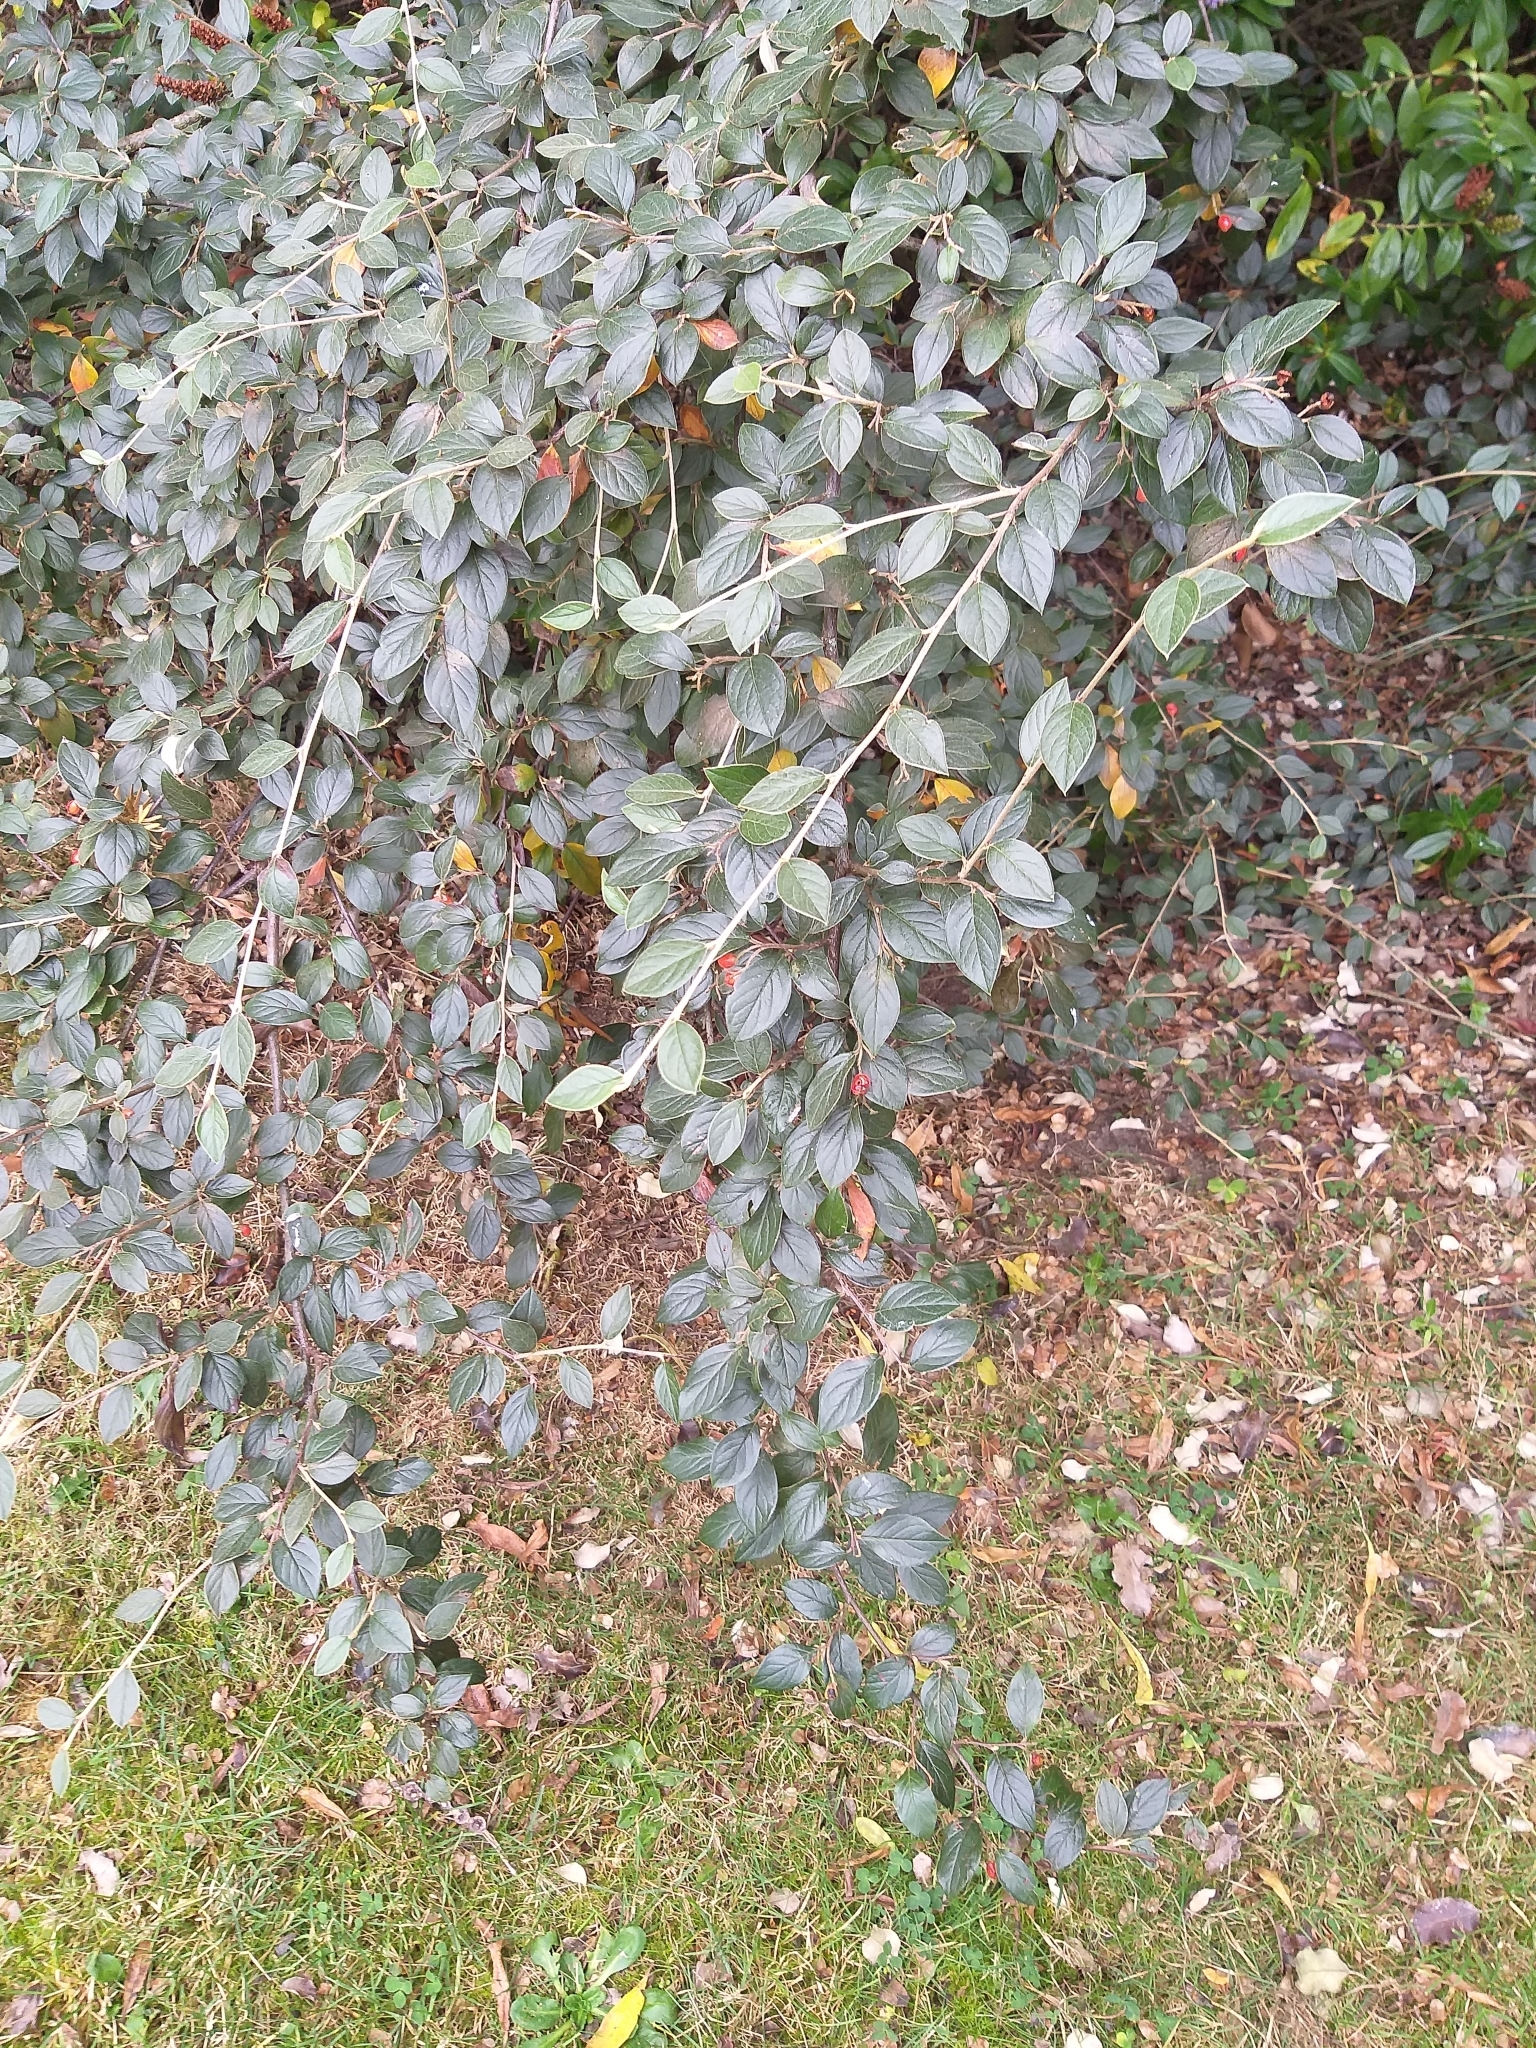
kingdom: Plantae
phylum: Tracheophyta
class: Magnoliopsida
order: Rosales
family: Rosaceae
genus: Cotoneaster
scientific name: Cotoneaster simonsii
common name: Himalayan cotoneaster
